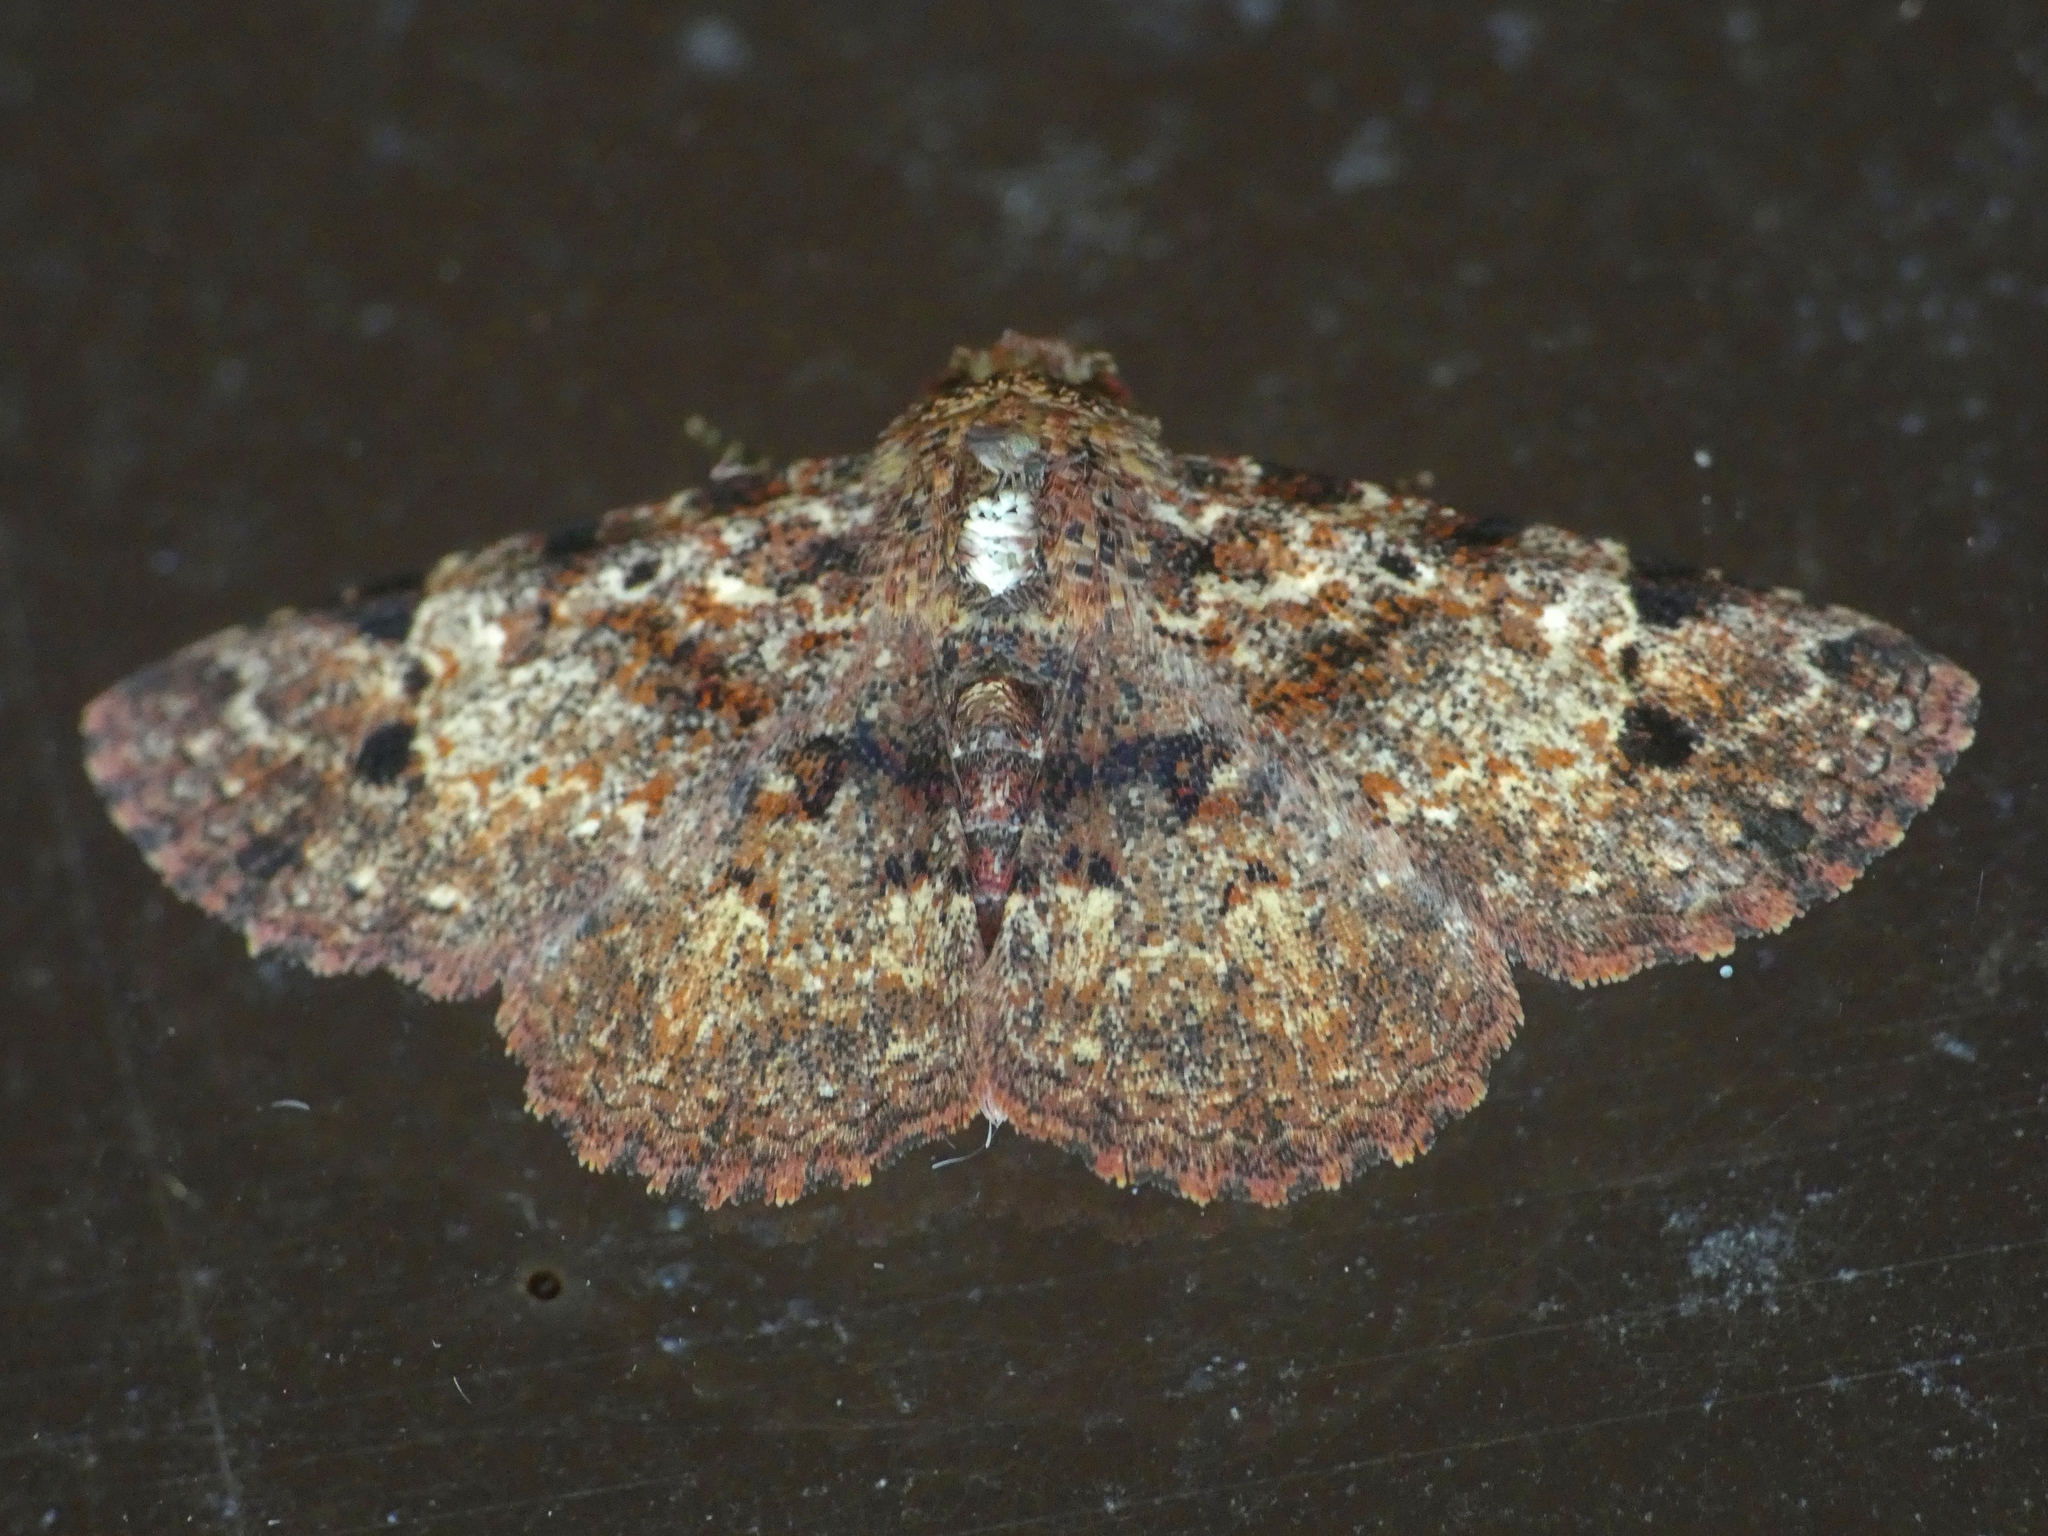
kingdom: Animalia
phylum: Arthropoda
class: Insecta
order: Lepidoptera
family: Erebidae
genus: Panilla
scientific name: Panilla spilotis
